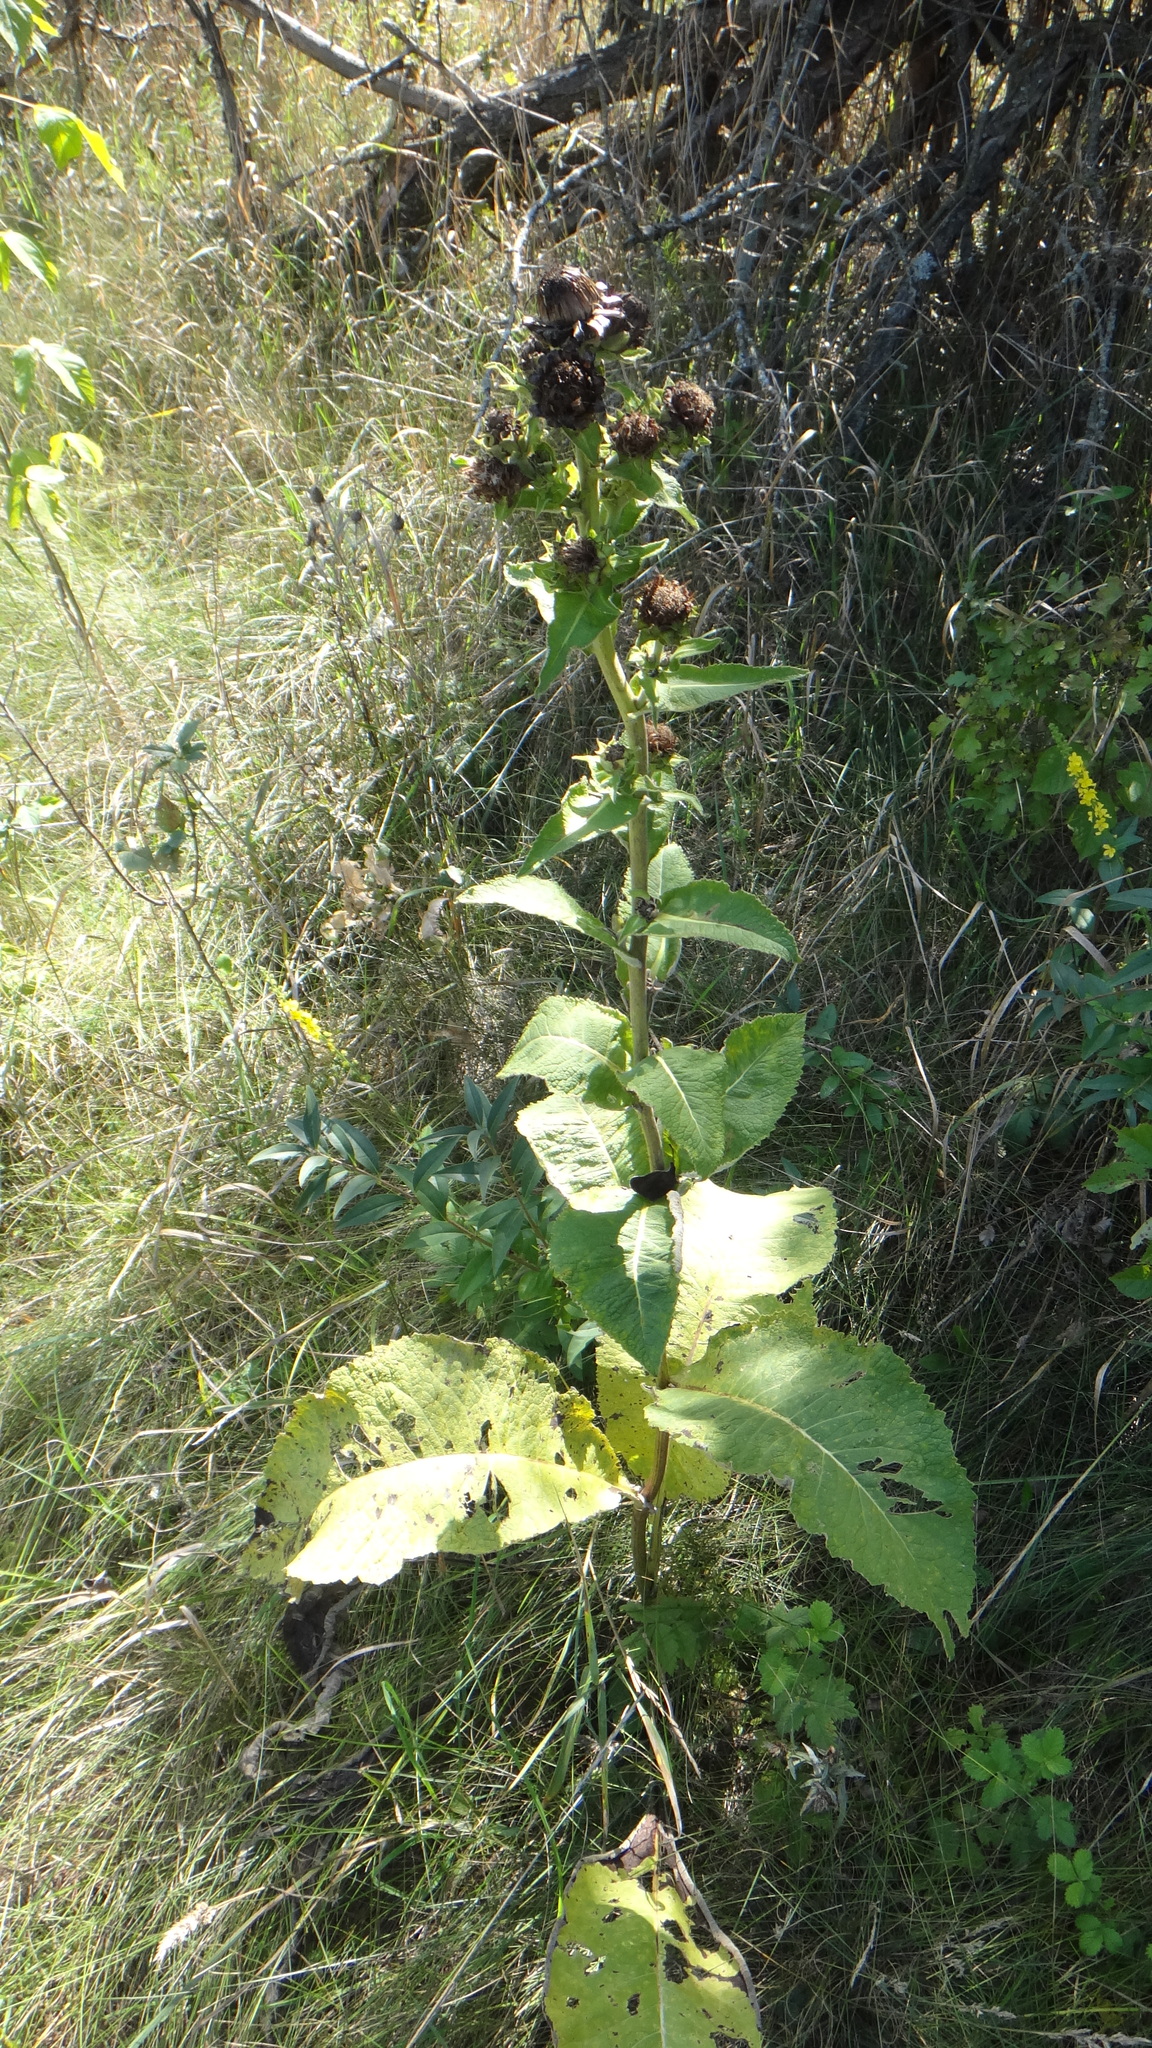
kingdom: Plantae
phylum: Tracheophyta
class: Magnoliopsida
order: Asterales
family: Asteraceae
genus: Inula
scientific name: Inula helenium
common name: Elecampane
